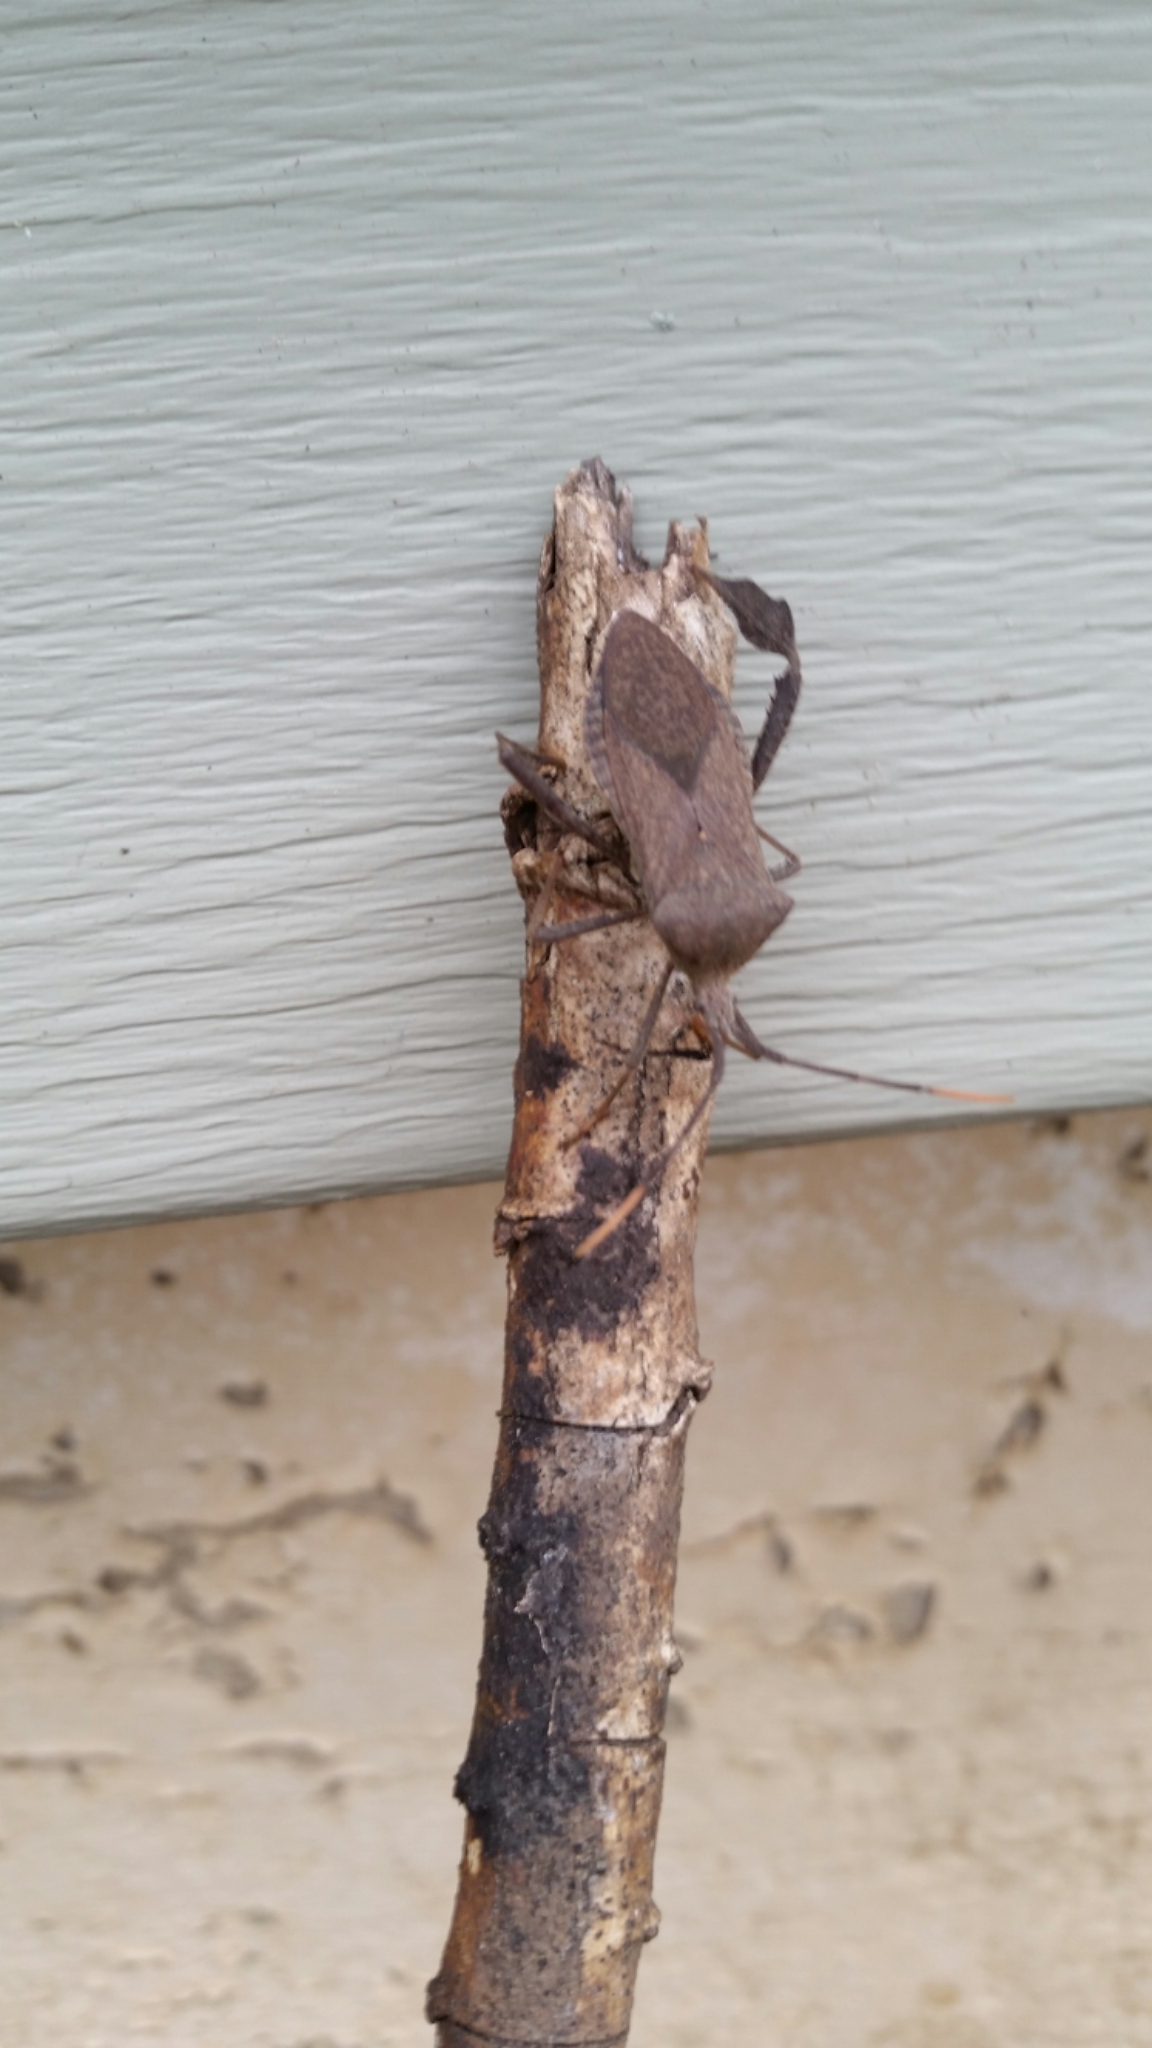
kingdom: Animalia
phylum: Arthropoda
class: Insecta
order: Hemiptera
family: Coreidae
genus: Acanthocephala
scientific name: Acanthocephala terminalis
